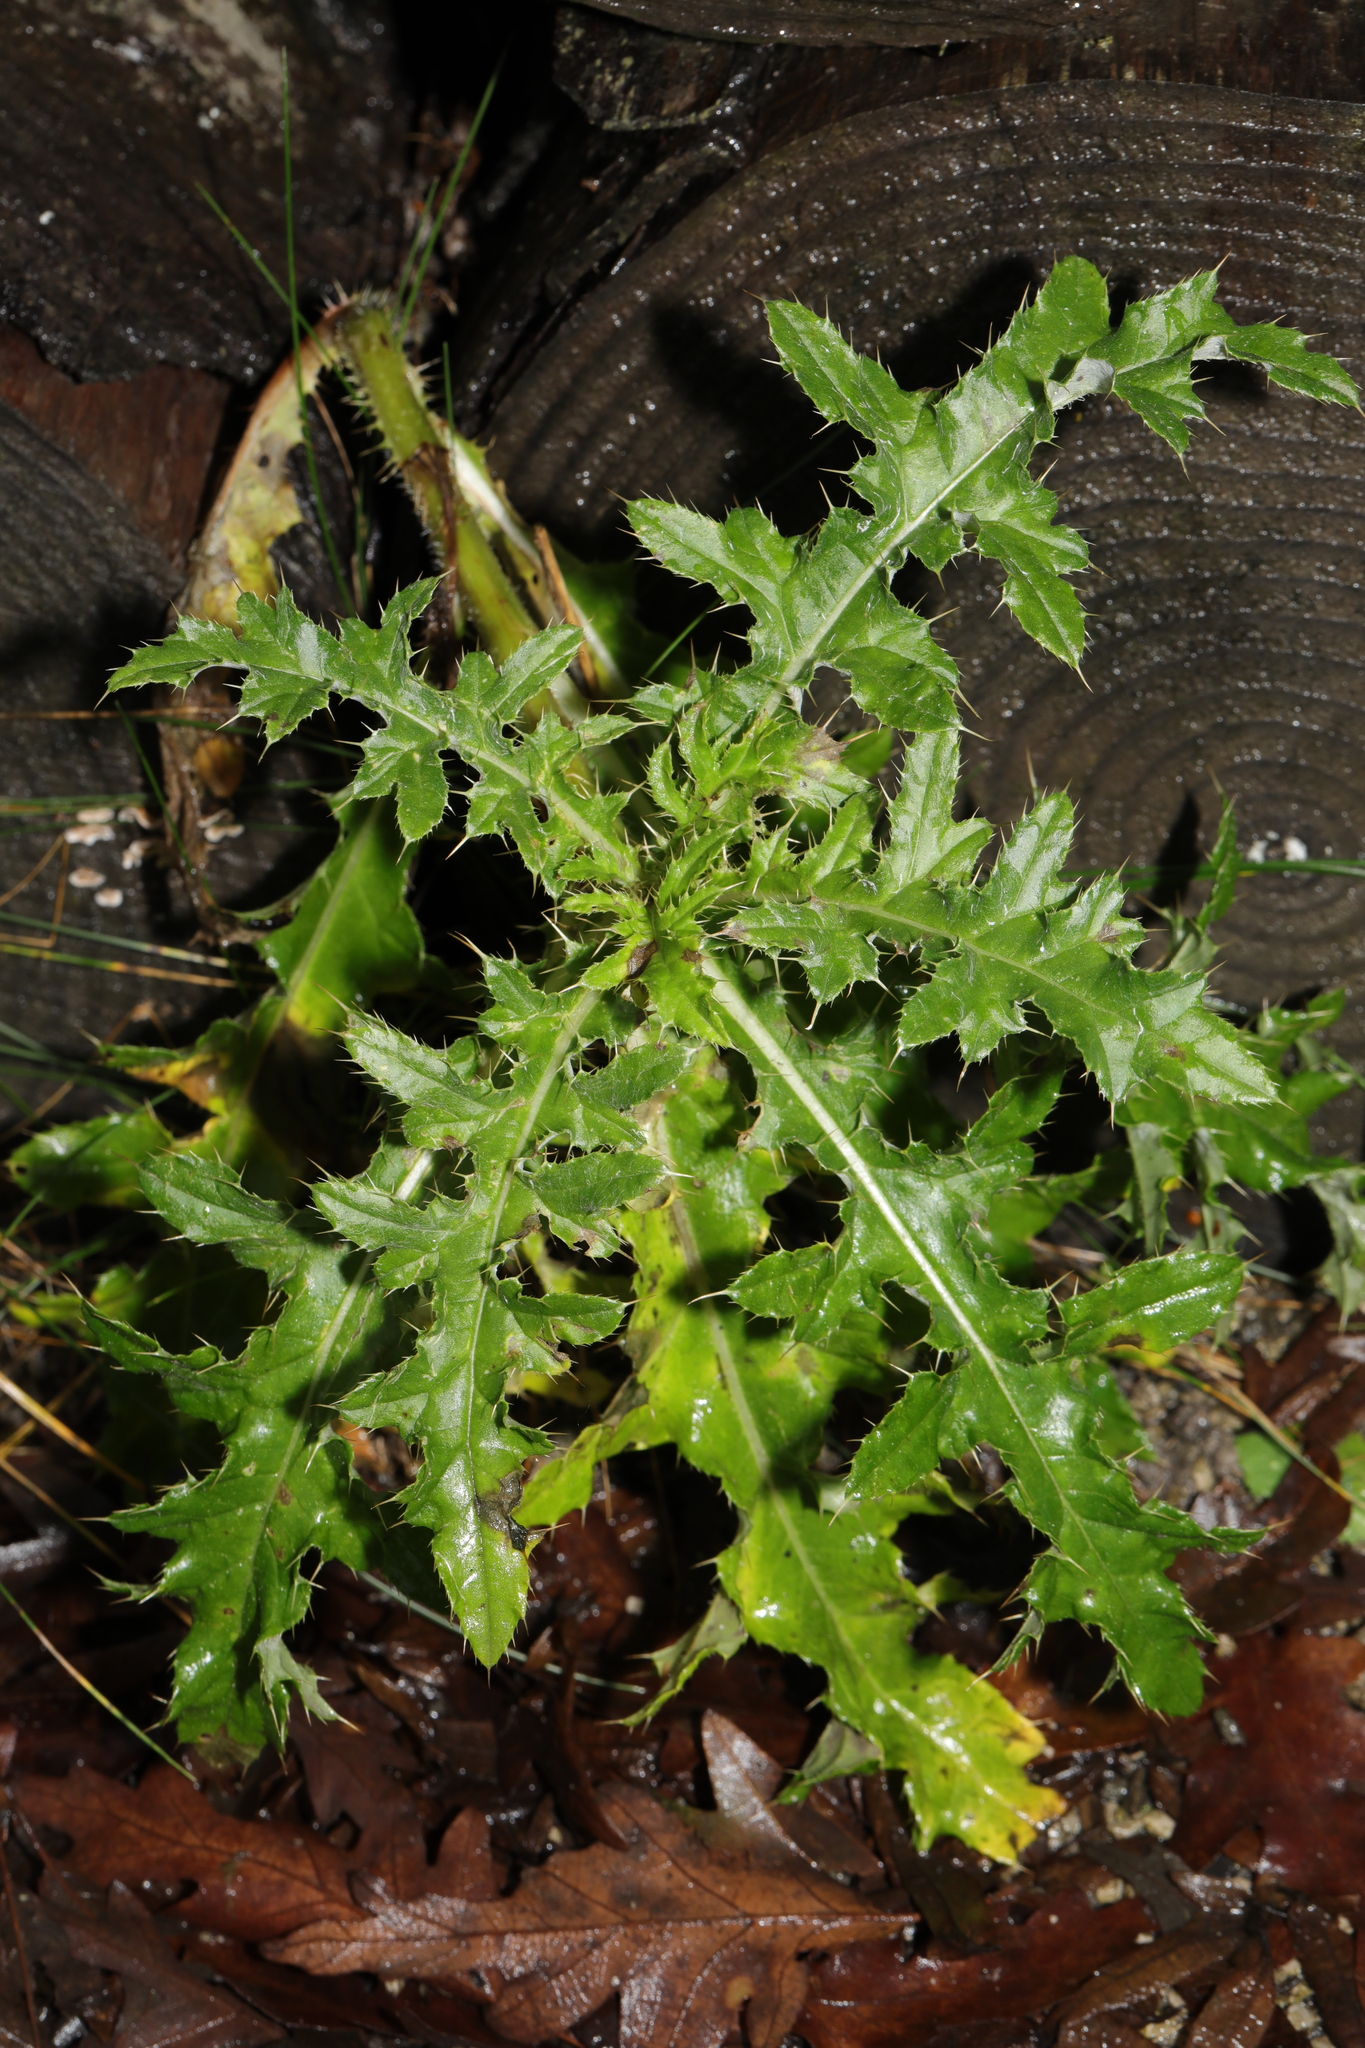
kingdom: Plantae
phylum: Tracheophyta
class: Magnoliopsida
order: Asterales
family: Asteraceae
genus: Cirsium
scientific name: Cirsium arvense
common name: Creeping thistle
